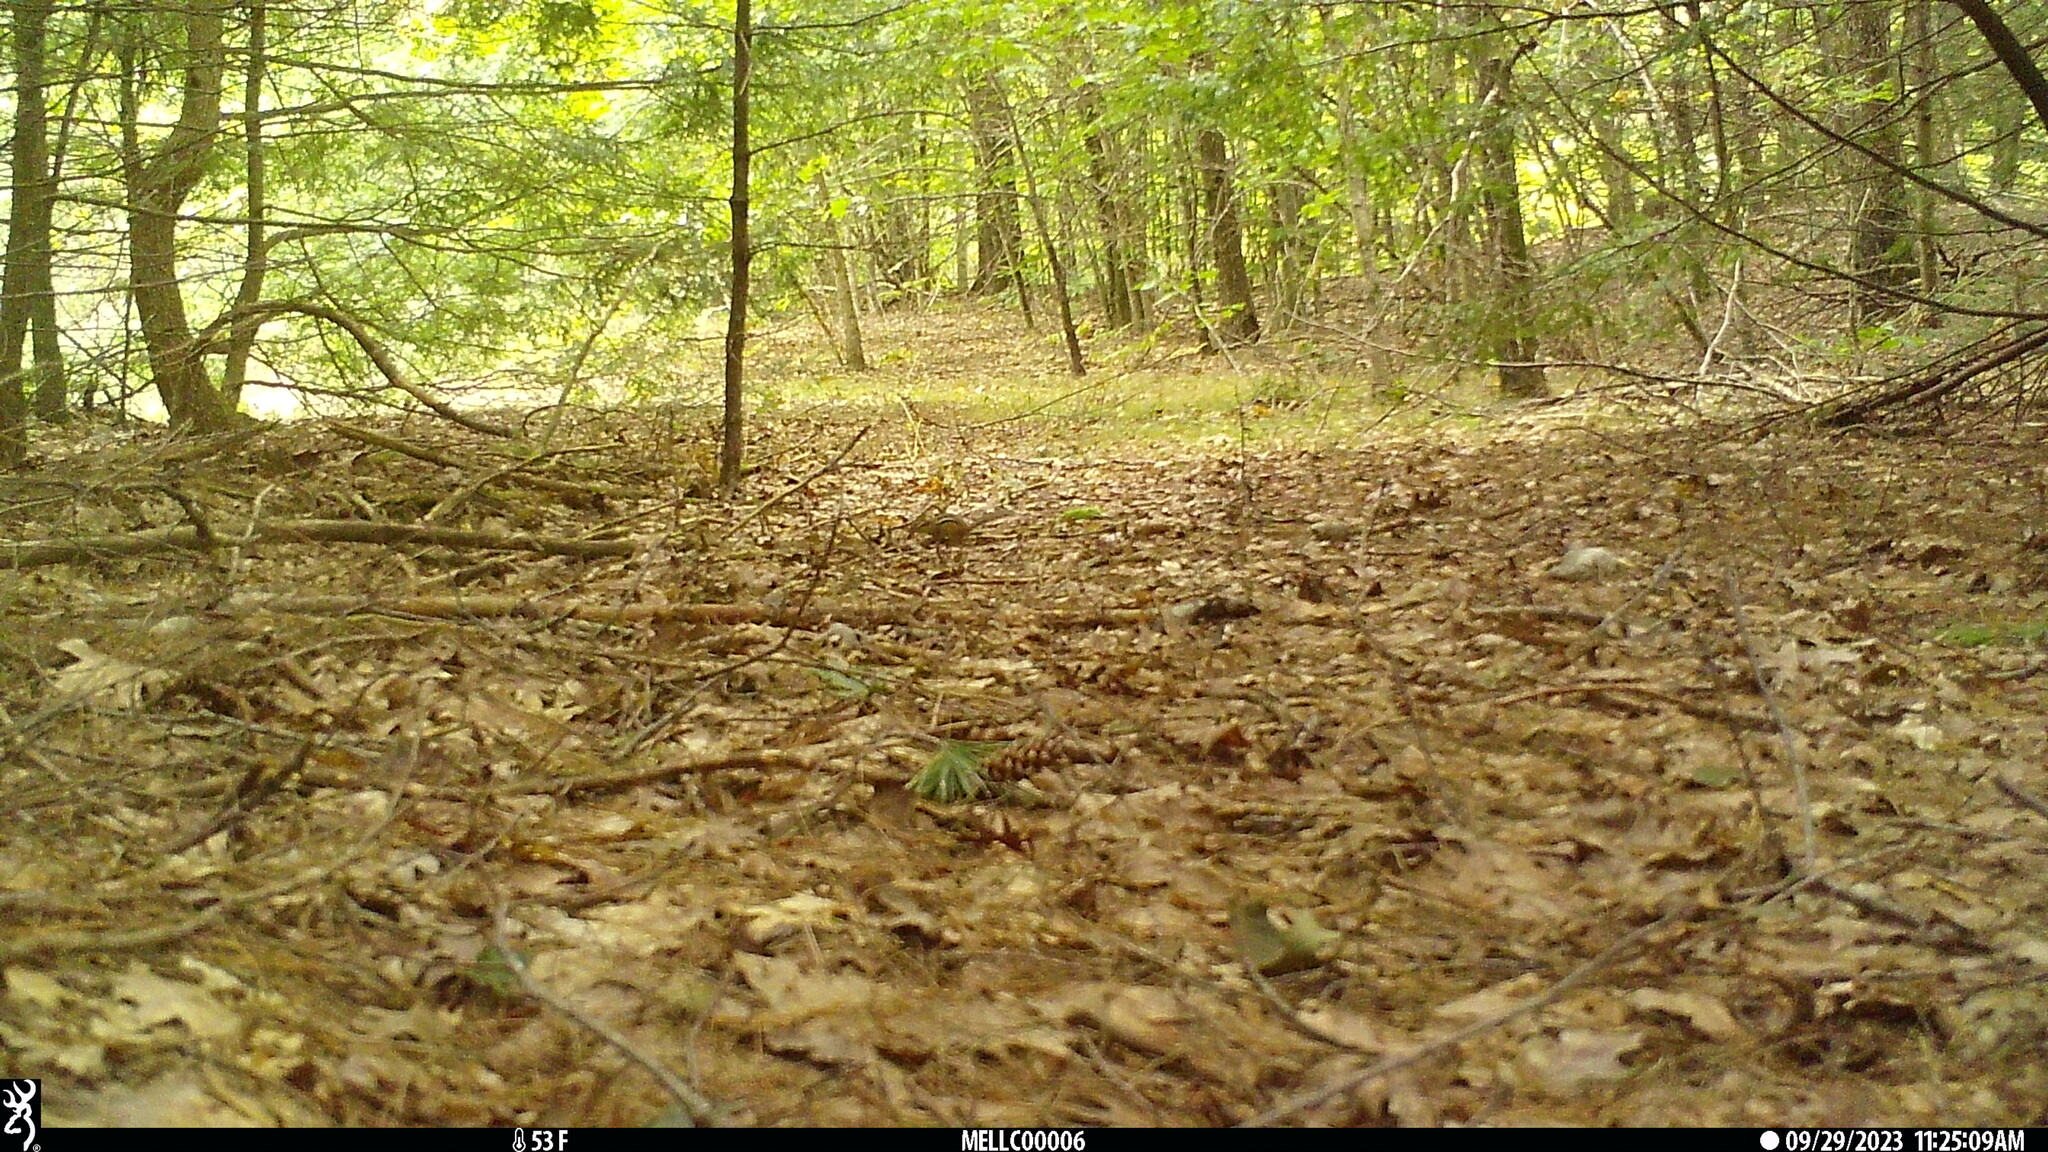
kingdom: Animalia
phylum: Chordata
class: Mammalia
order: Rodentia
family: Sciuridae
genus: Tamias
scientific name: Tamias striatus
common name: Eastern chipmunk
